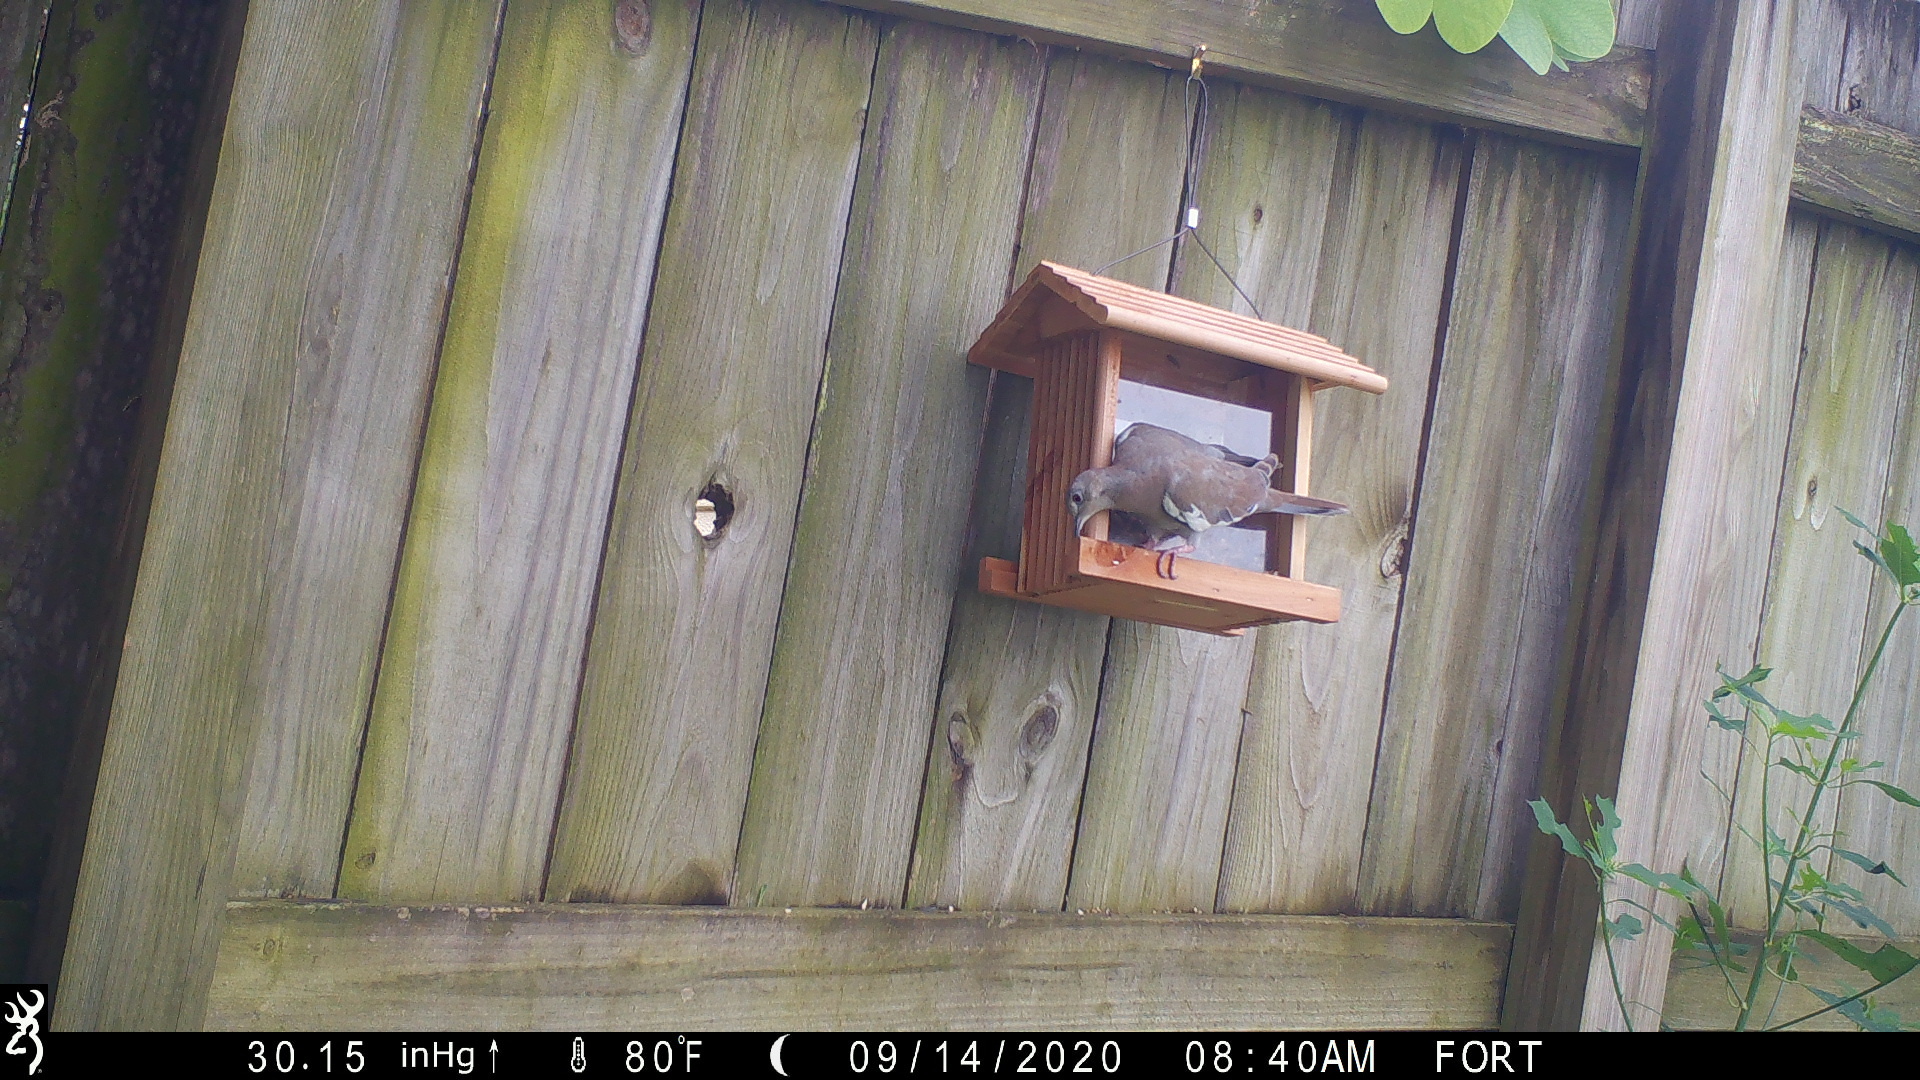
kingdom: Animalia
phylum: Chordata
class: Aves
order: Columbiformes
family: Columbidae
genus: Zenaida
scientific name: Zenaida asiatica
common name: White-winged dove
